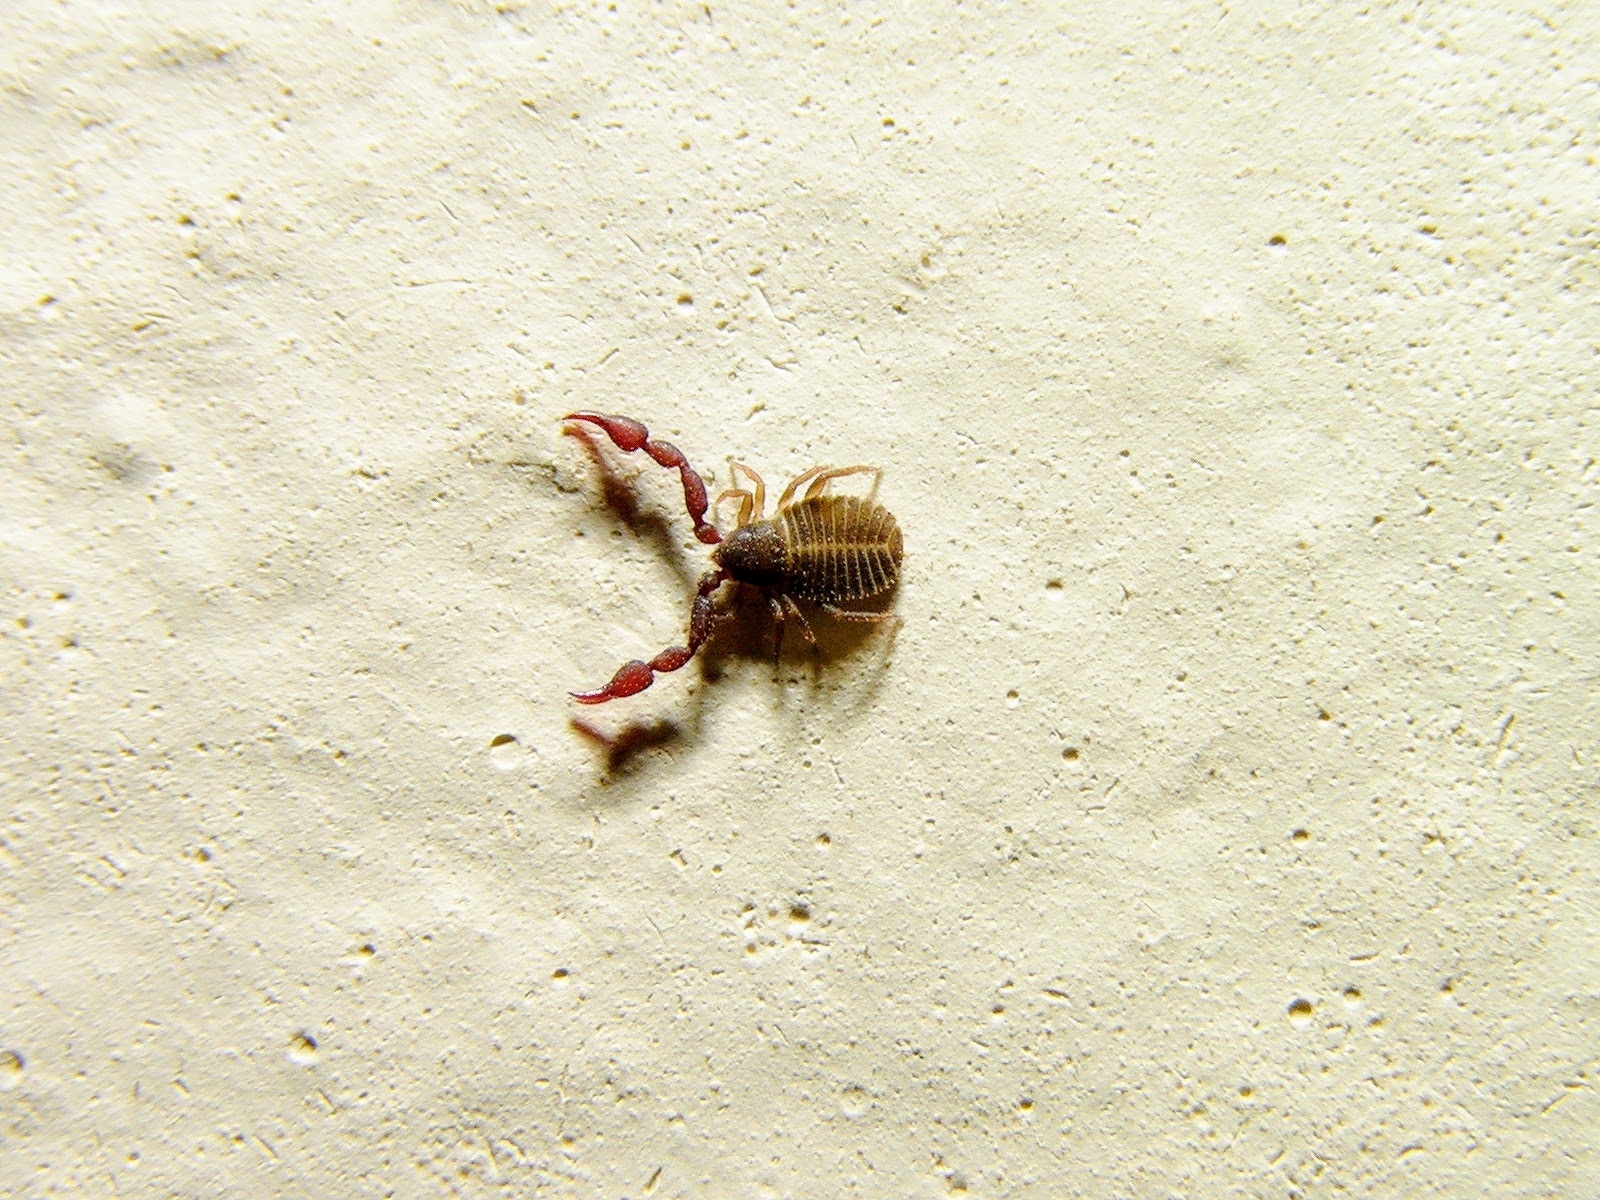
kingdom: Animalia
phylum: Arthropoda
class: Arachnida
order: Pseudoscorpiones
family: Cheliferidae
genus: Chelifer
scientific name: Chelifer cancroides
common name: House false-scorpion
